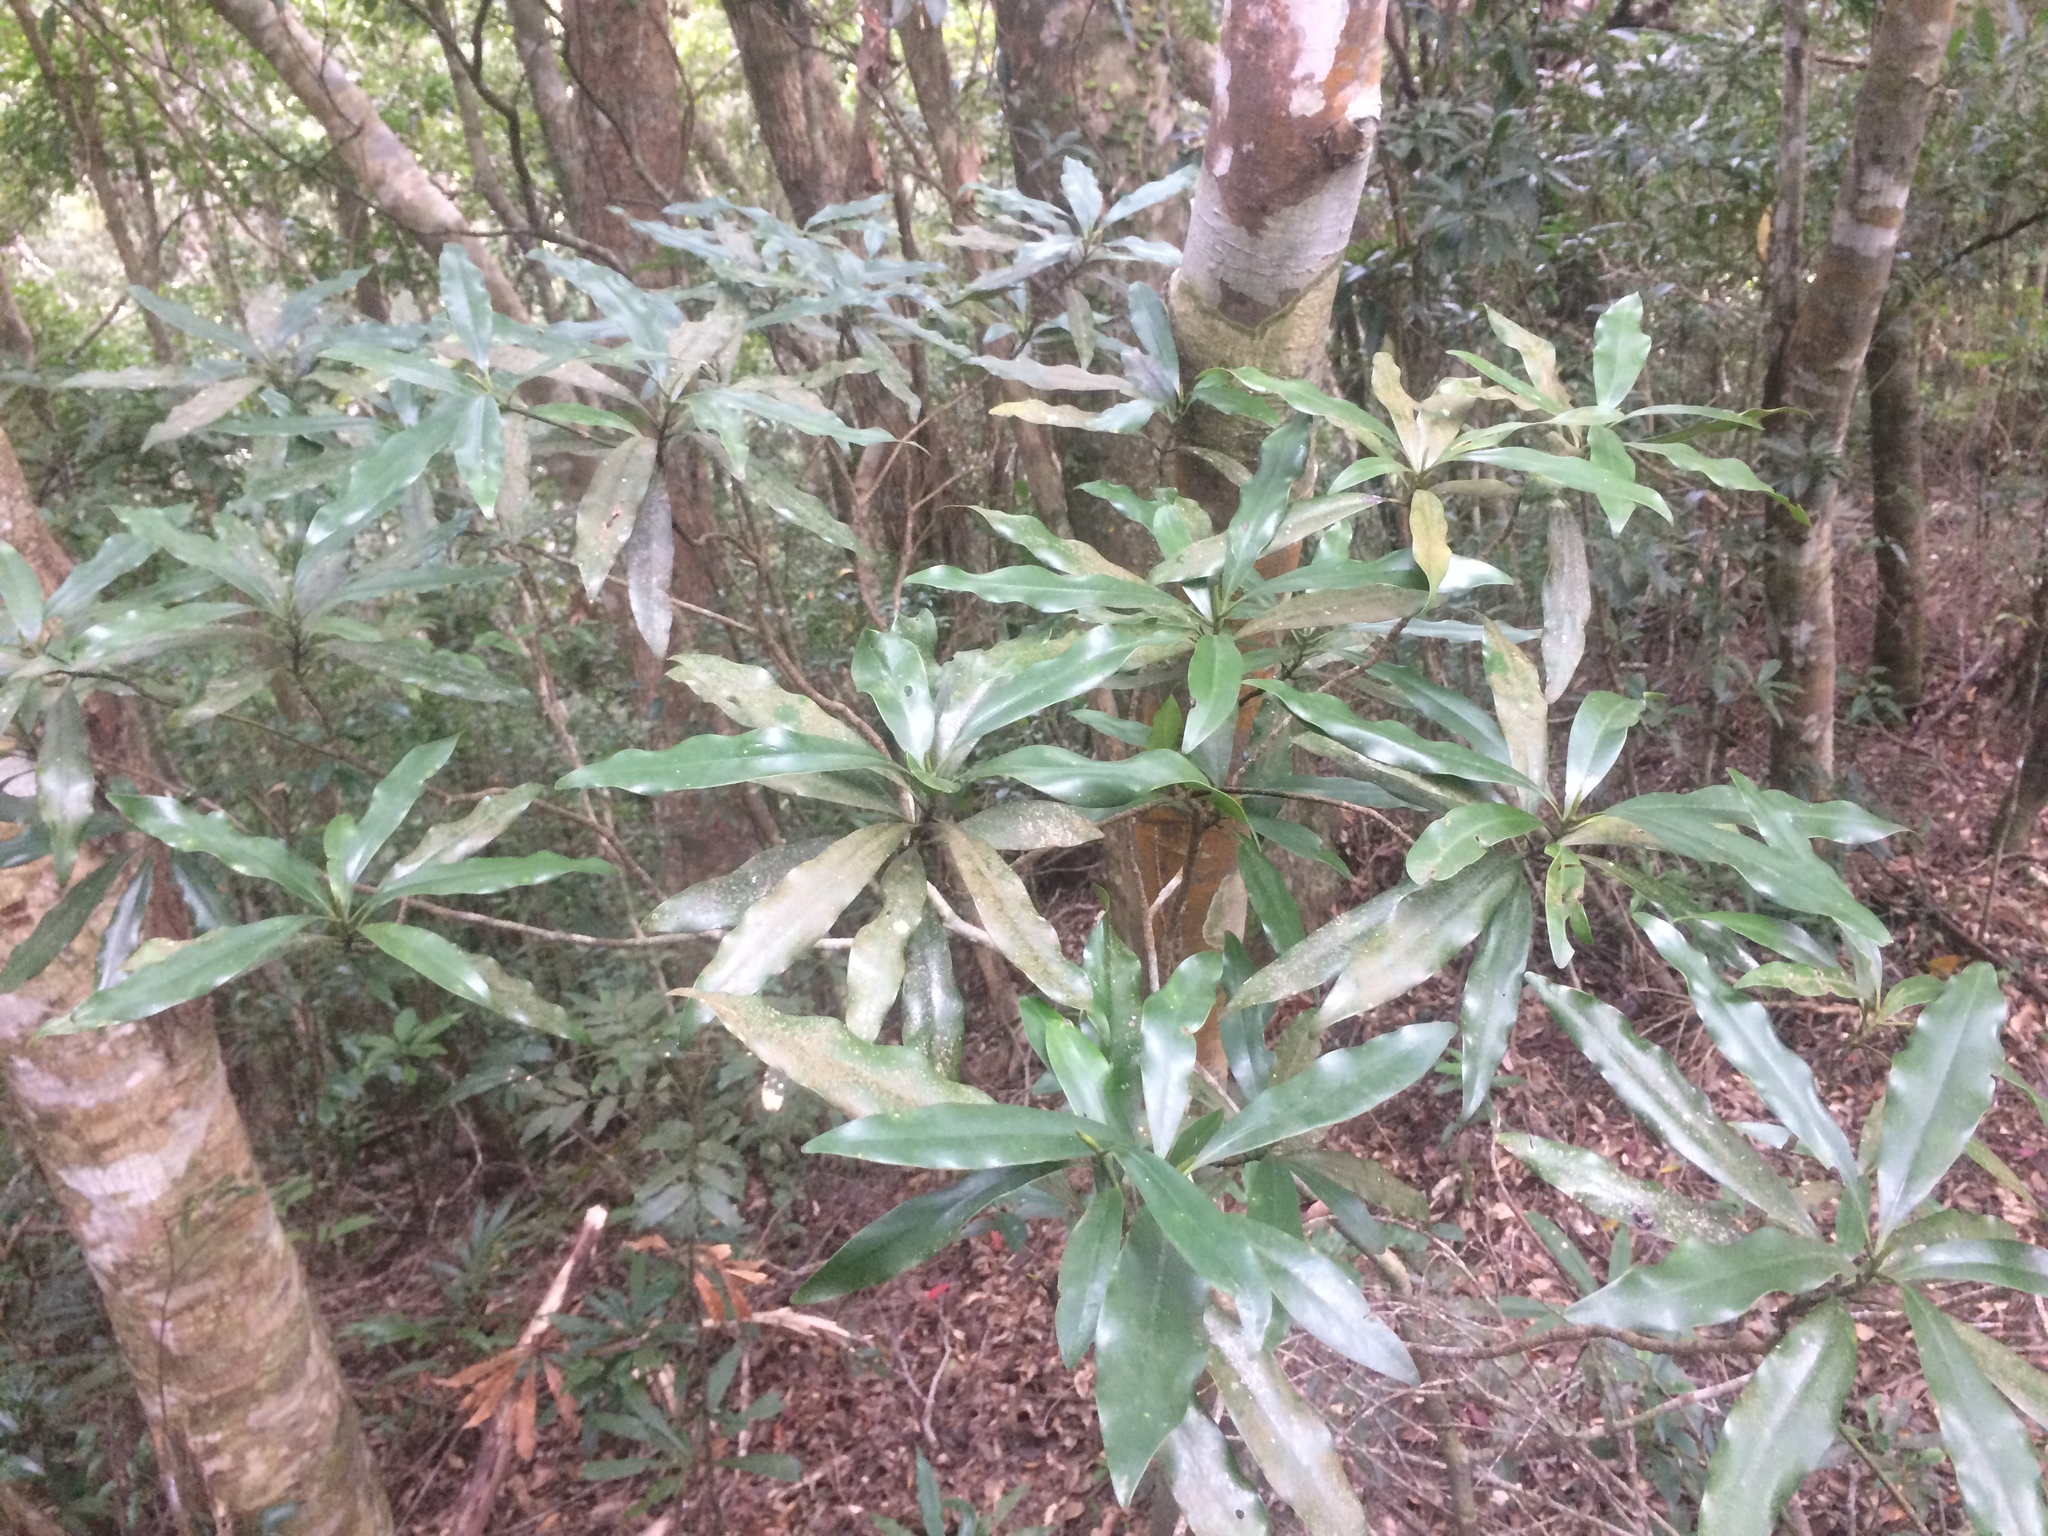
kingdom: Plantae
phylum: Tracheophyta
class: Magnoliopsida
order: Magnoliales
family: Magnoliaceae
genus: Magnolia
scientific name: Magnolia kachirachirai
